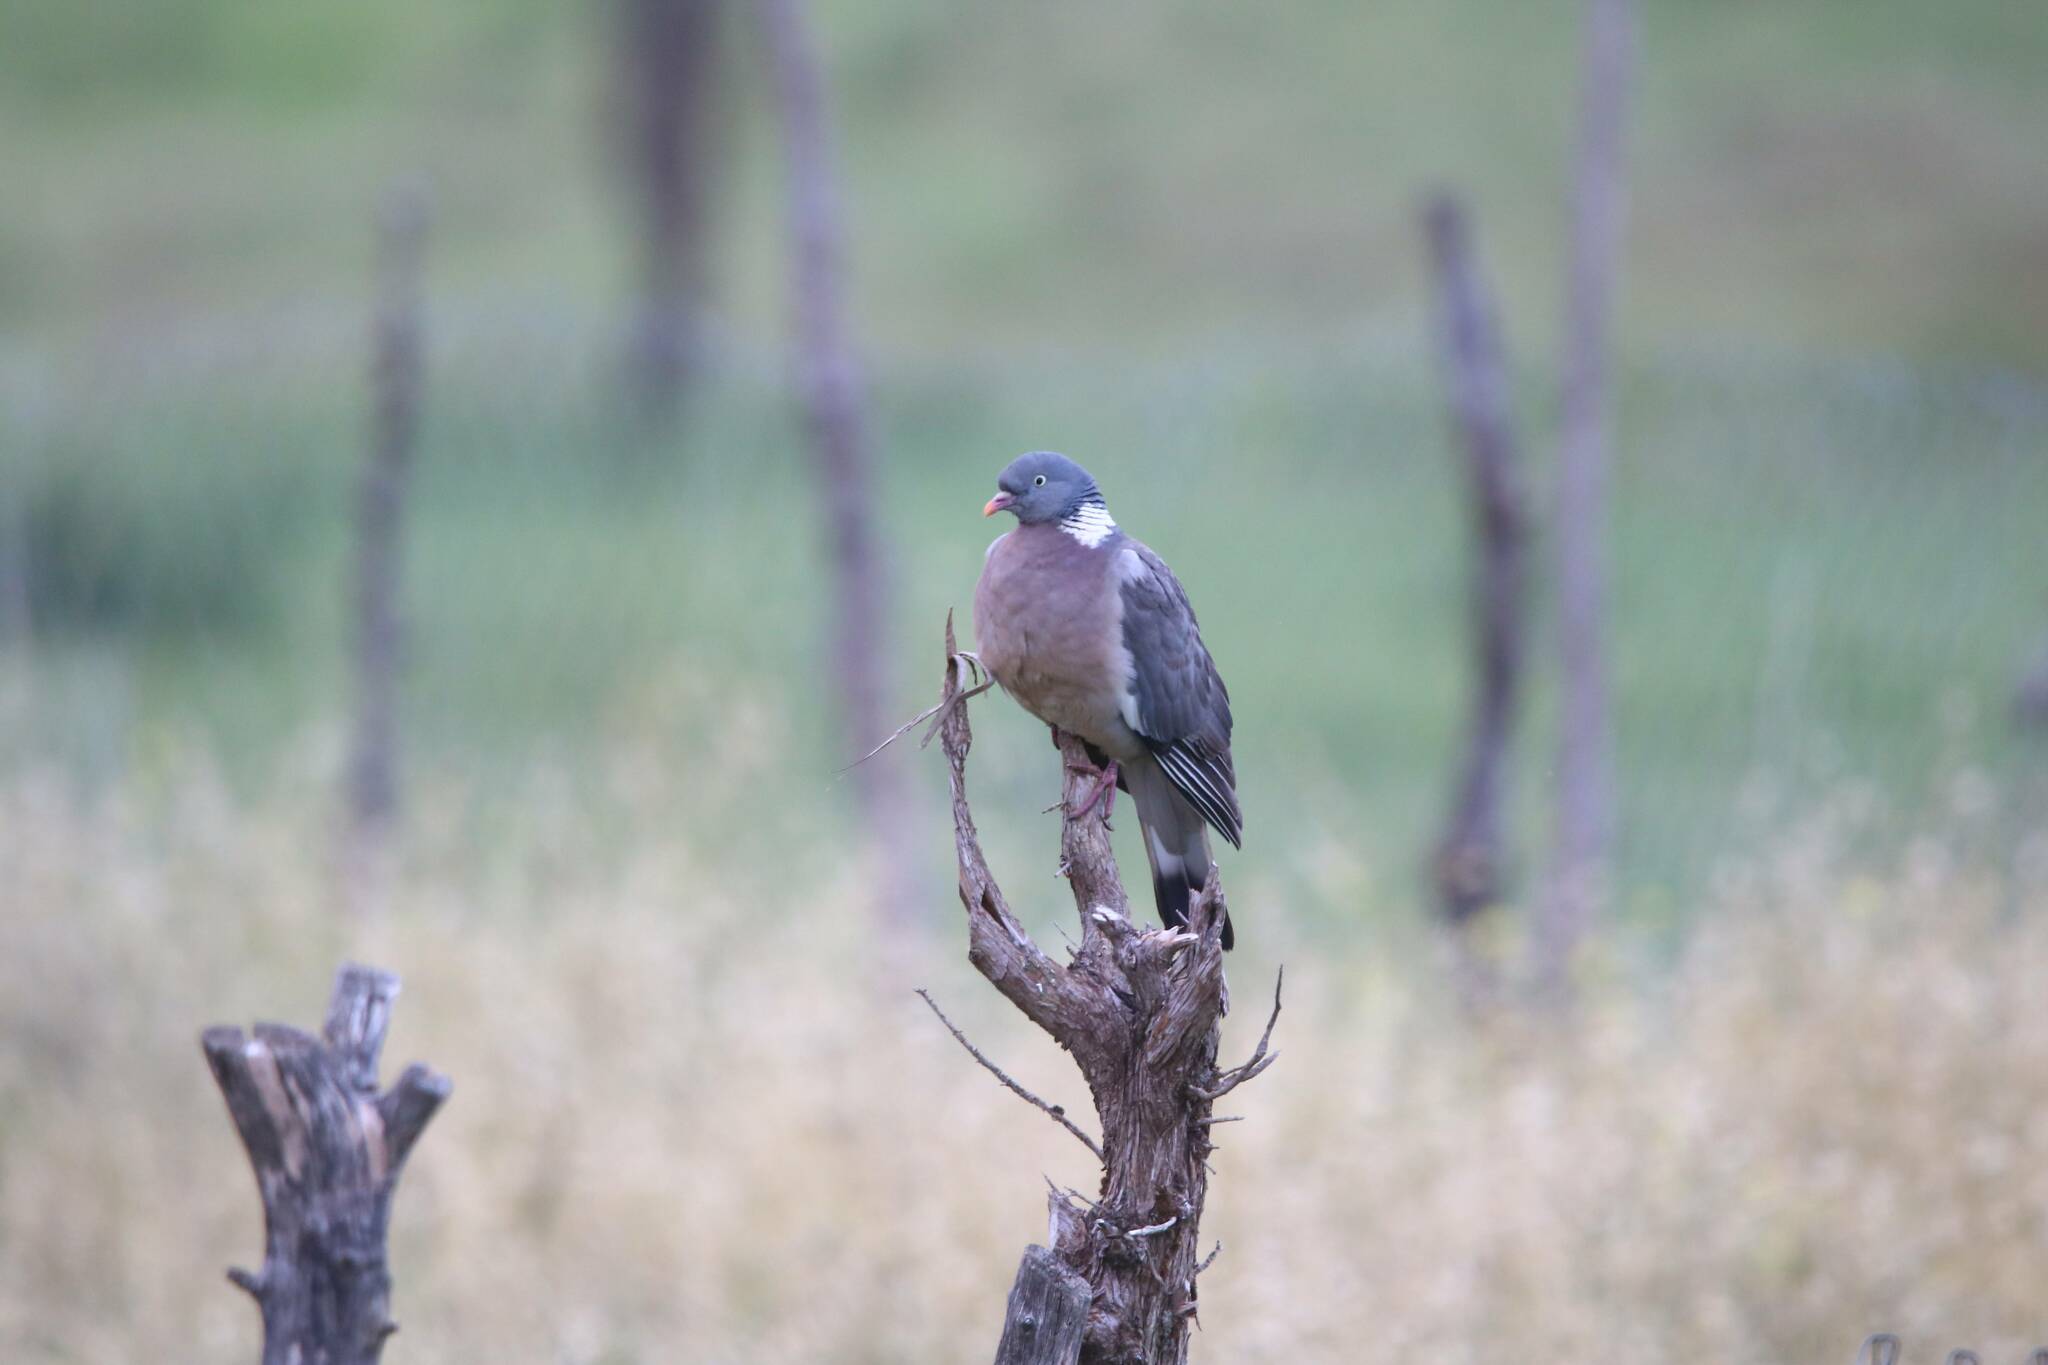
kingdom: Animalia
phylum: Chordata
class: Aves
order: Columbiformes
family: Columbidae
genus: Columba
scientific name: Columba palumbus
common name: Common wood pigeon
